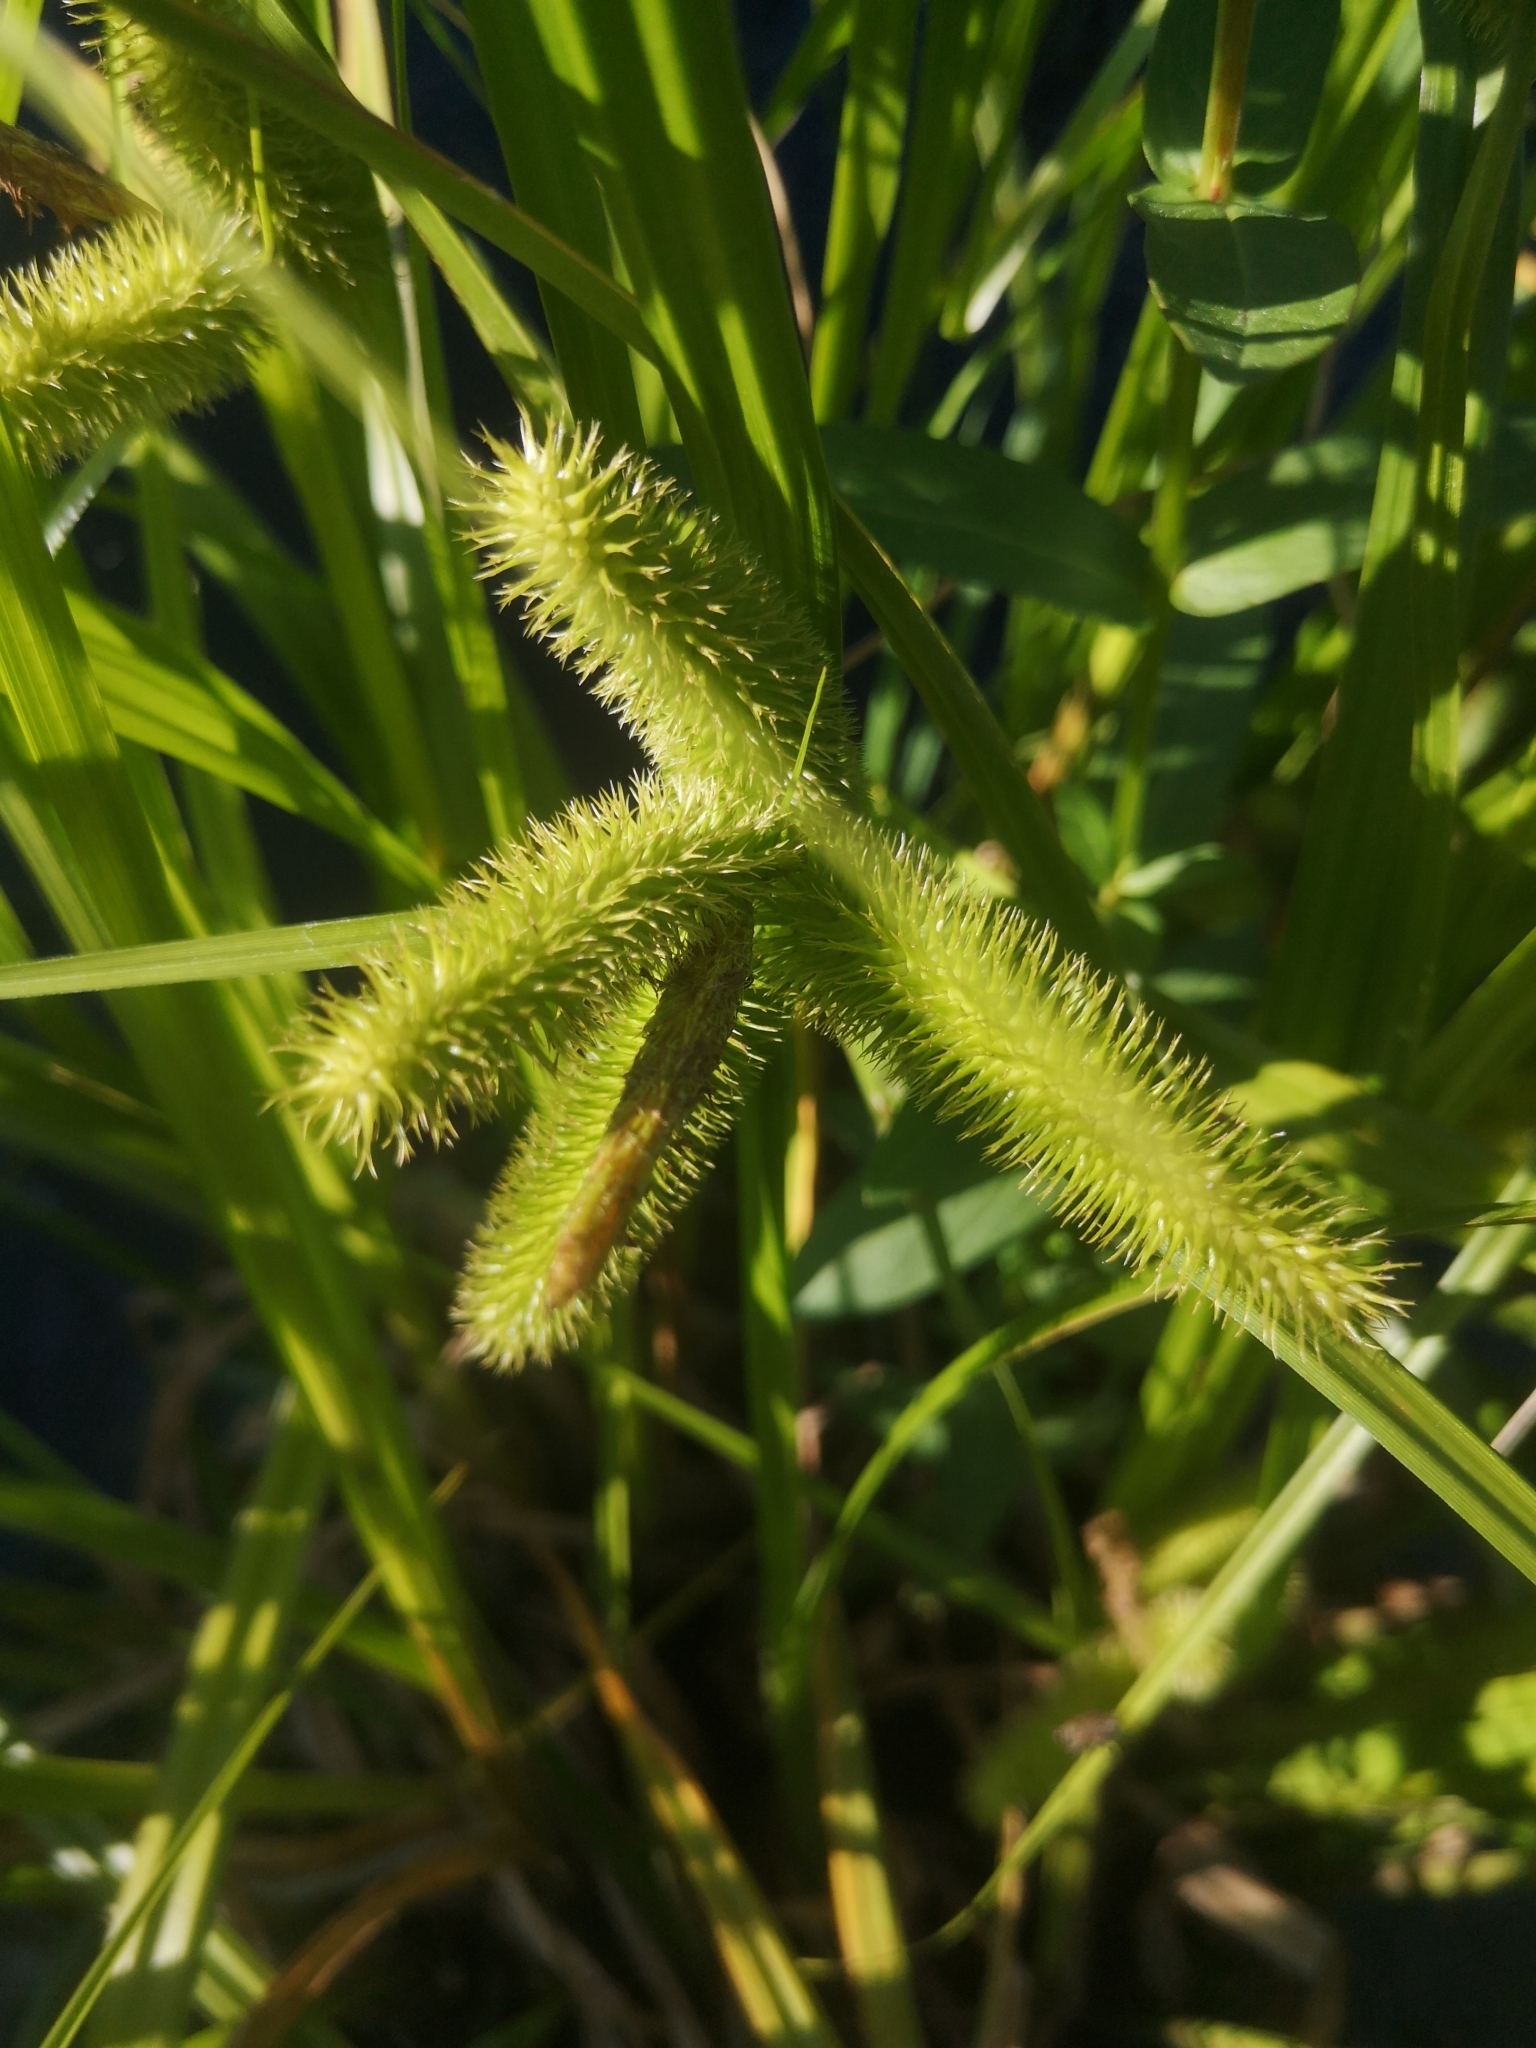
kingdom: Plantae
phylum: Tracheophyta
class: Liliopsida
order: Poales
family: Cyperaceae
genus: Carex
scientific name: Carex comosa
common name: Bristly sedge
